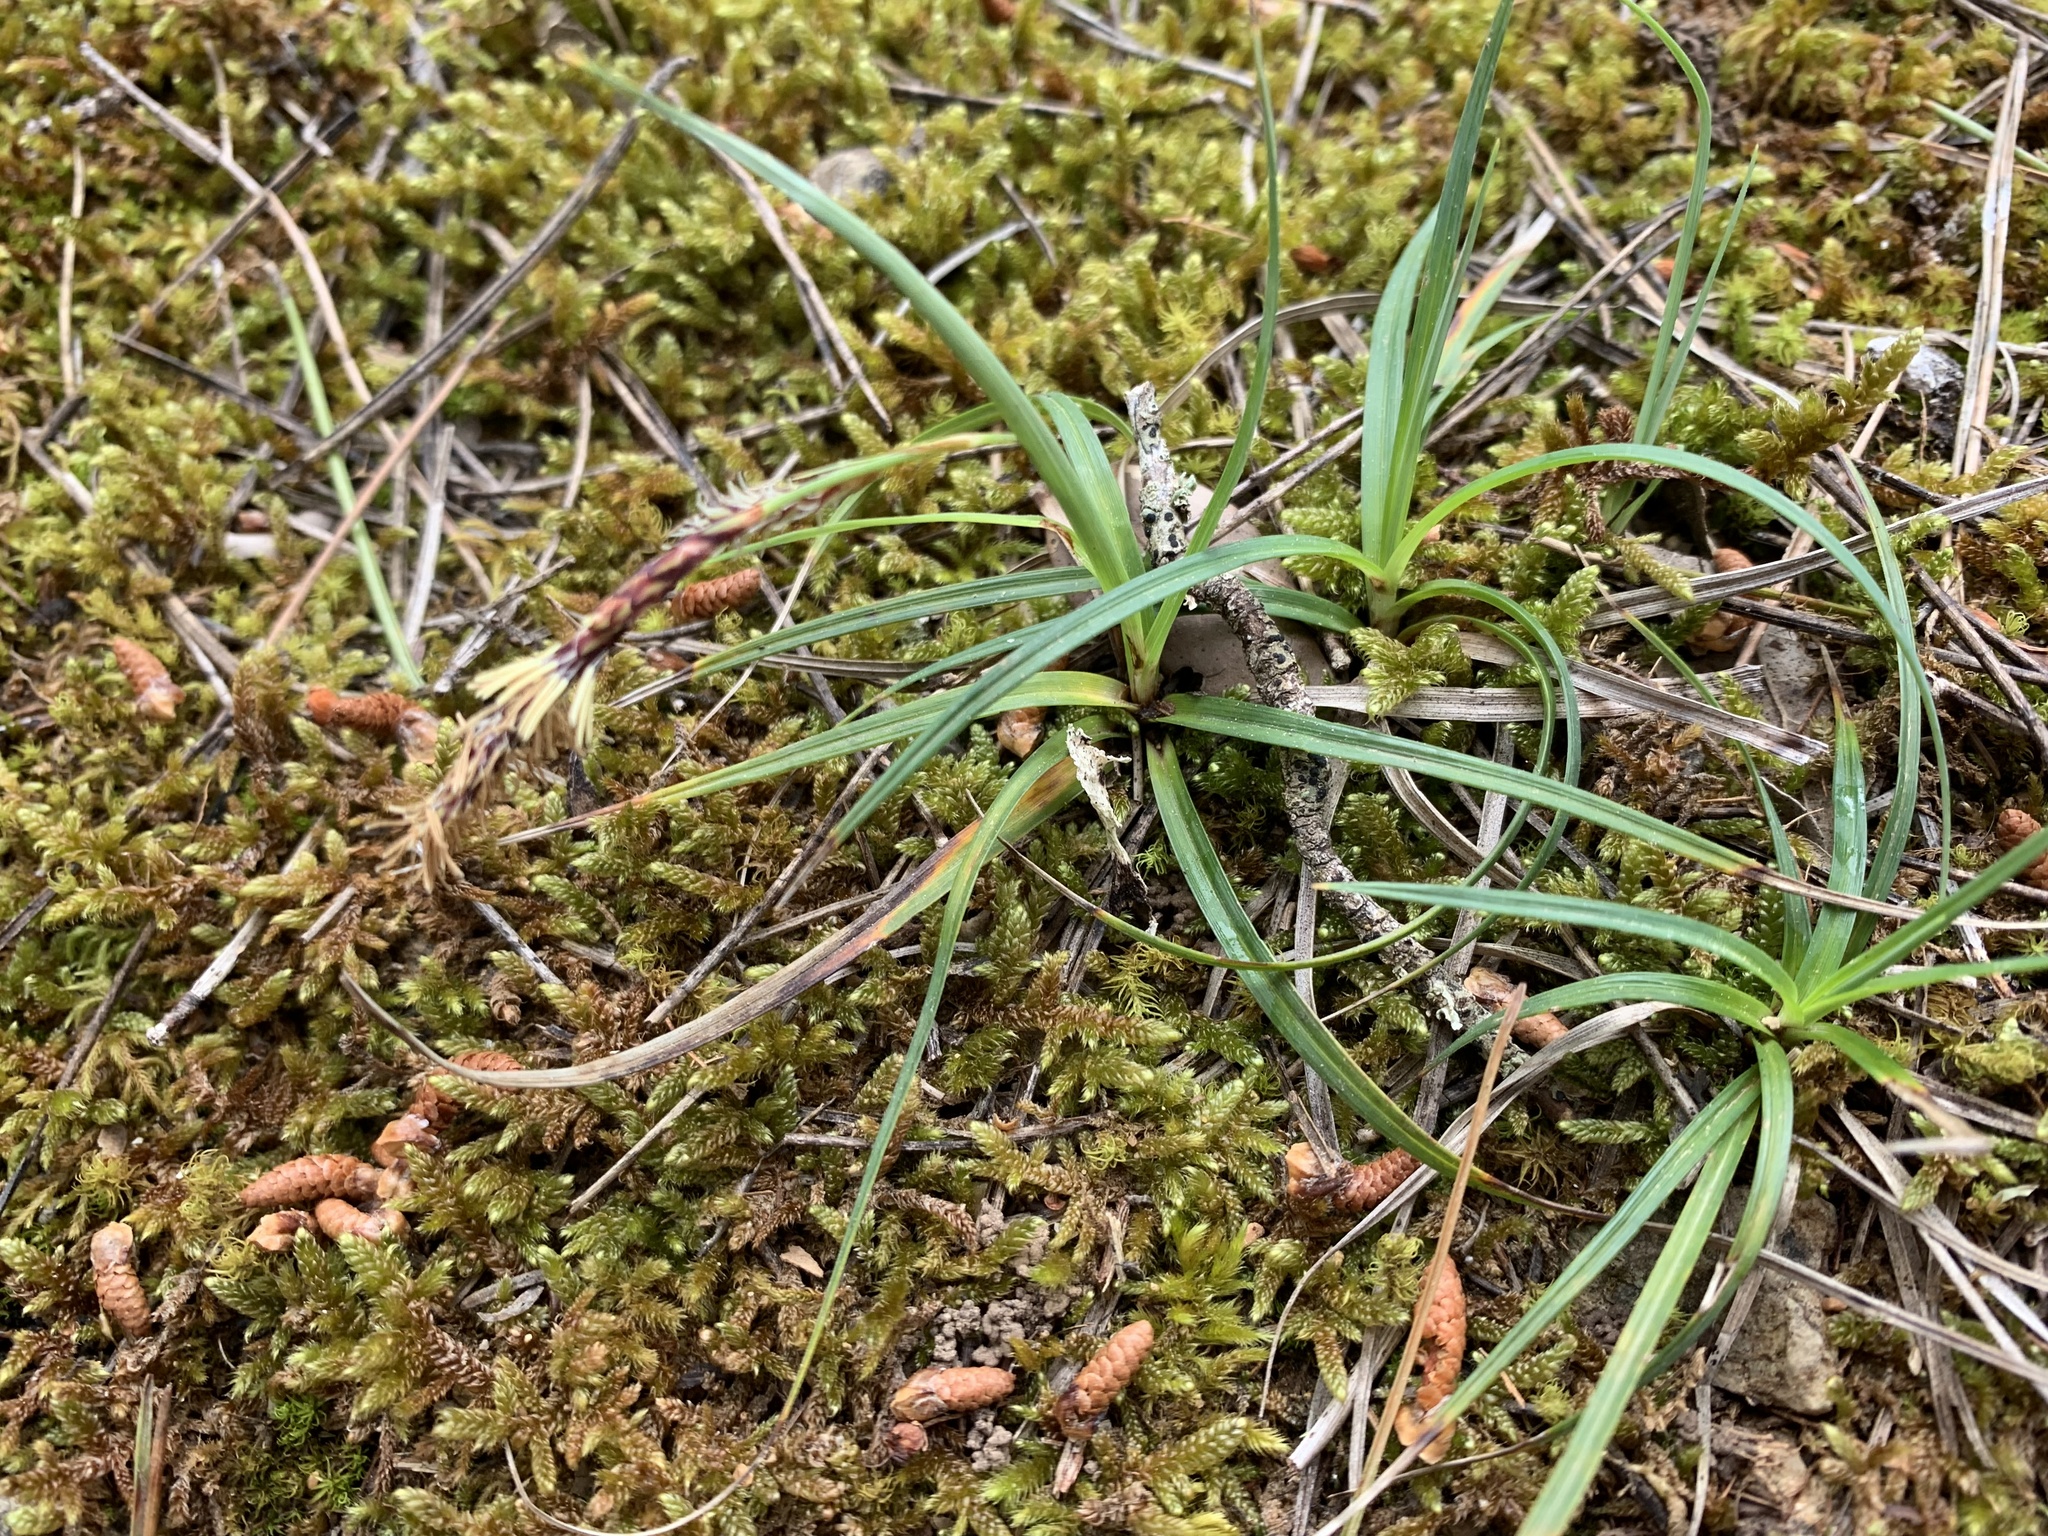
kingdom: Plantae
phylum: Tracheophyta
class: Liliopsida
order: Poales
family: Cyperaceae
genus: Carex
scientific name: Carex flacca
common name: Glaucous sedge
